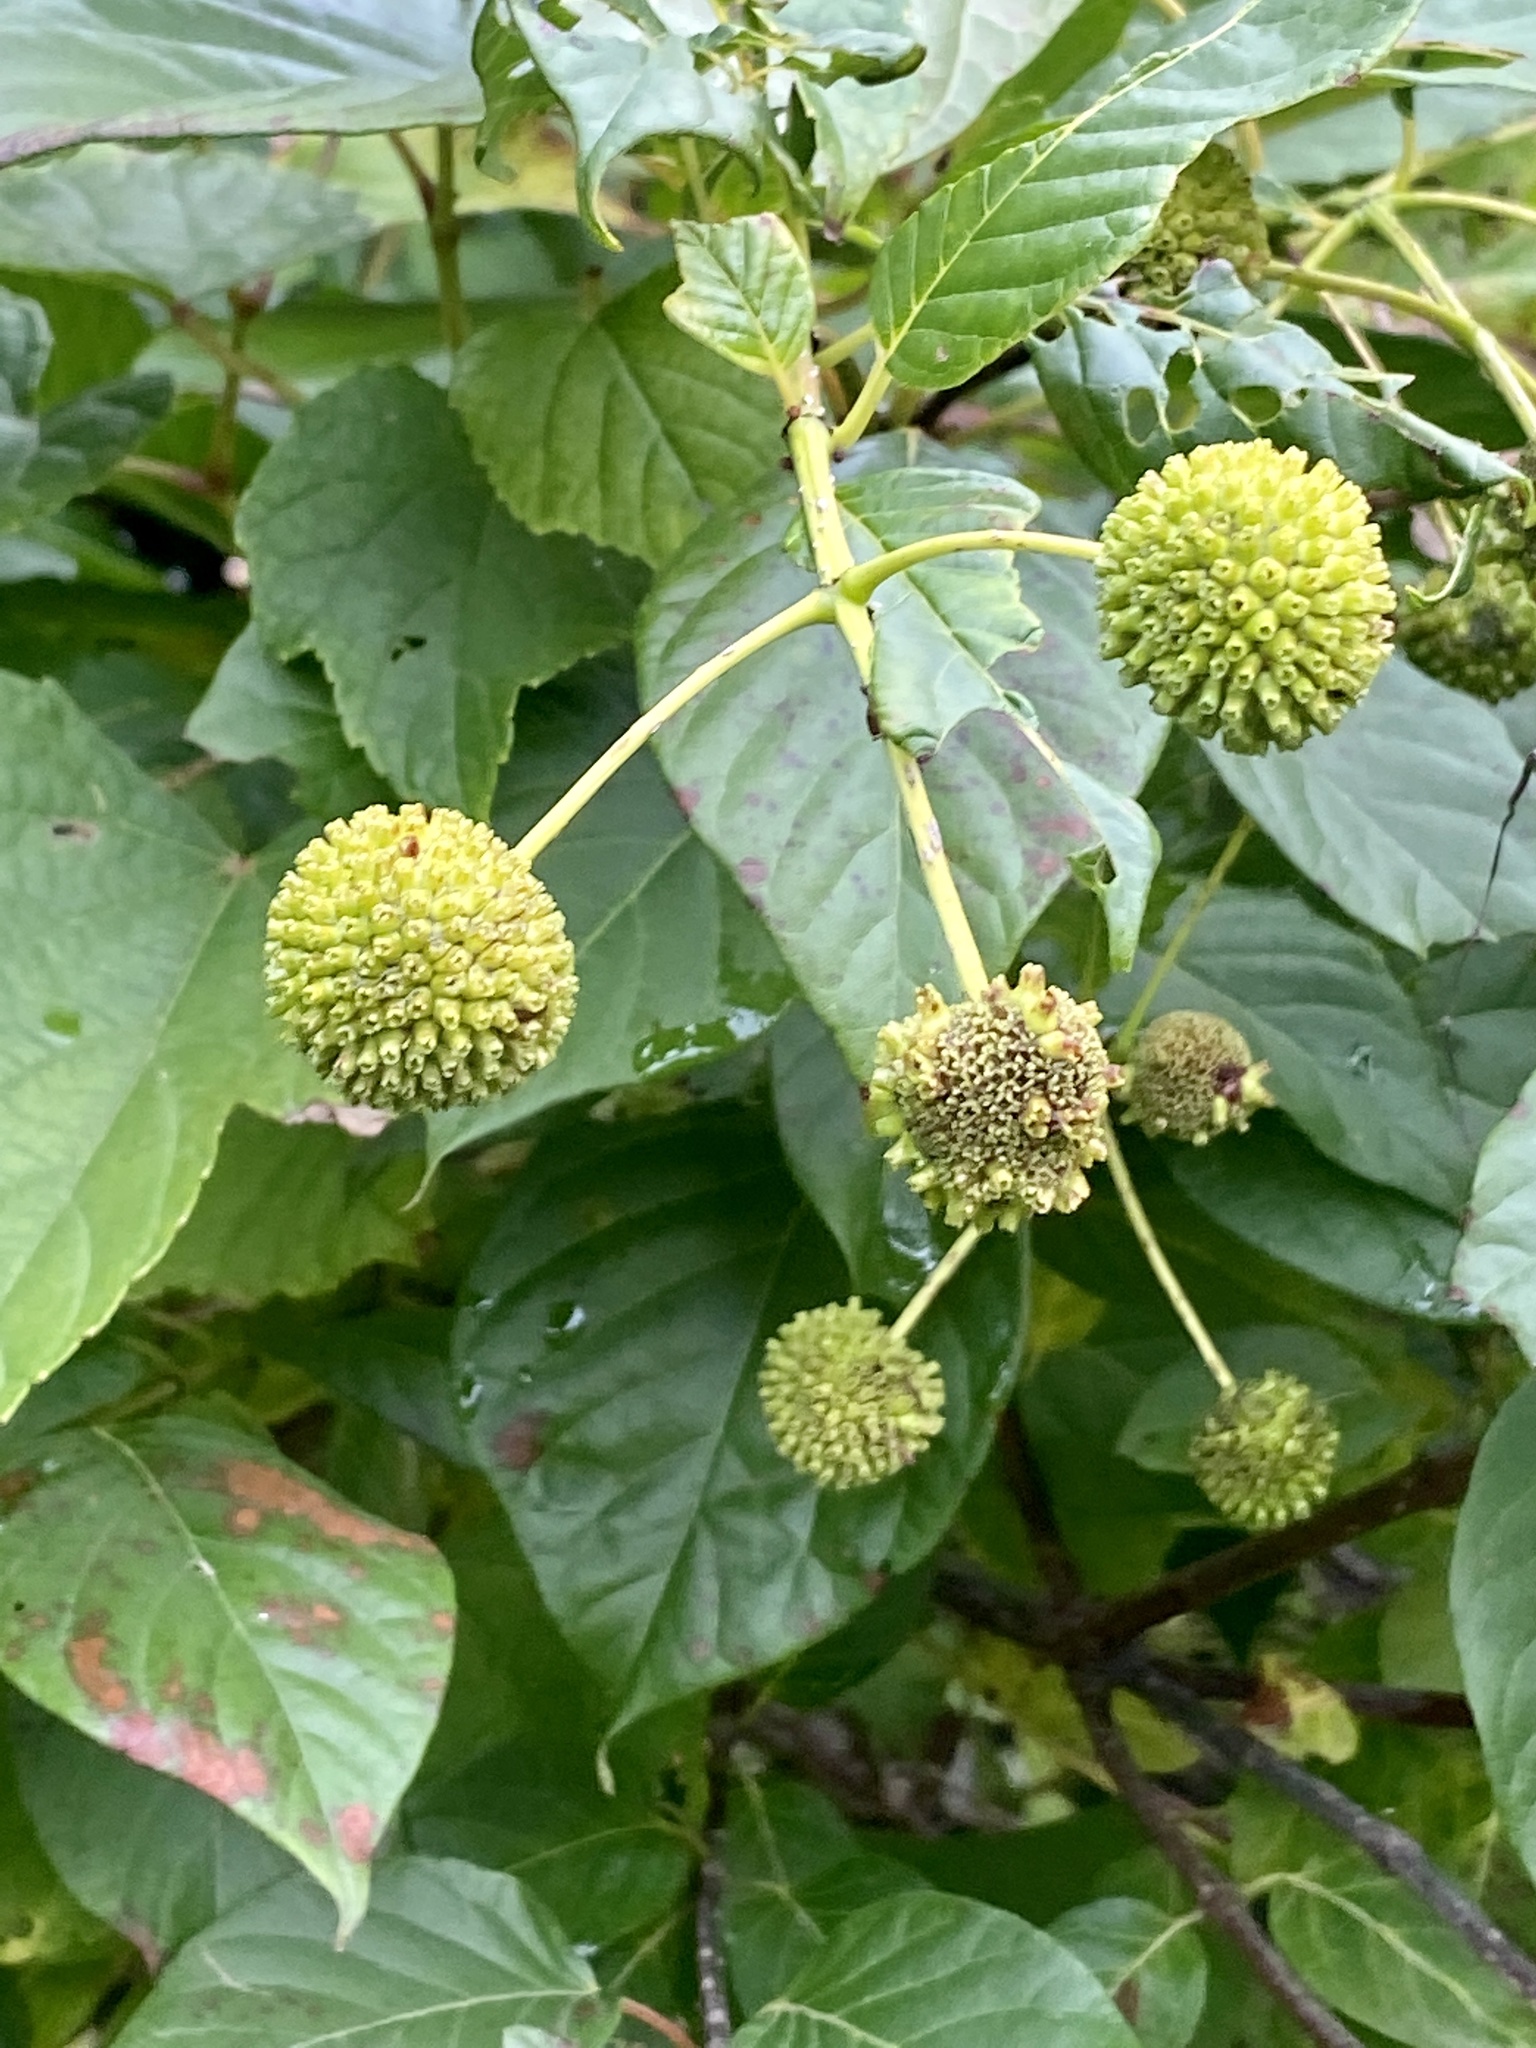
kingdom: Plantae
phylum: Tracheophyta
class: Magnoliopsida
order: Gentianales
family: Rubiaceae
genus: Cephalanthus
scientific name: Cephalanthus occidentalis
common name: Button-willow
